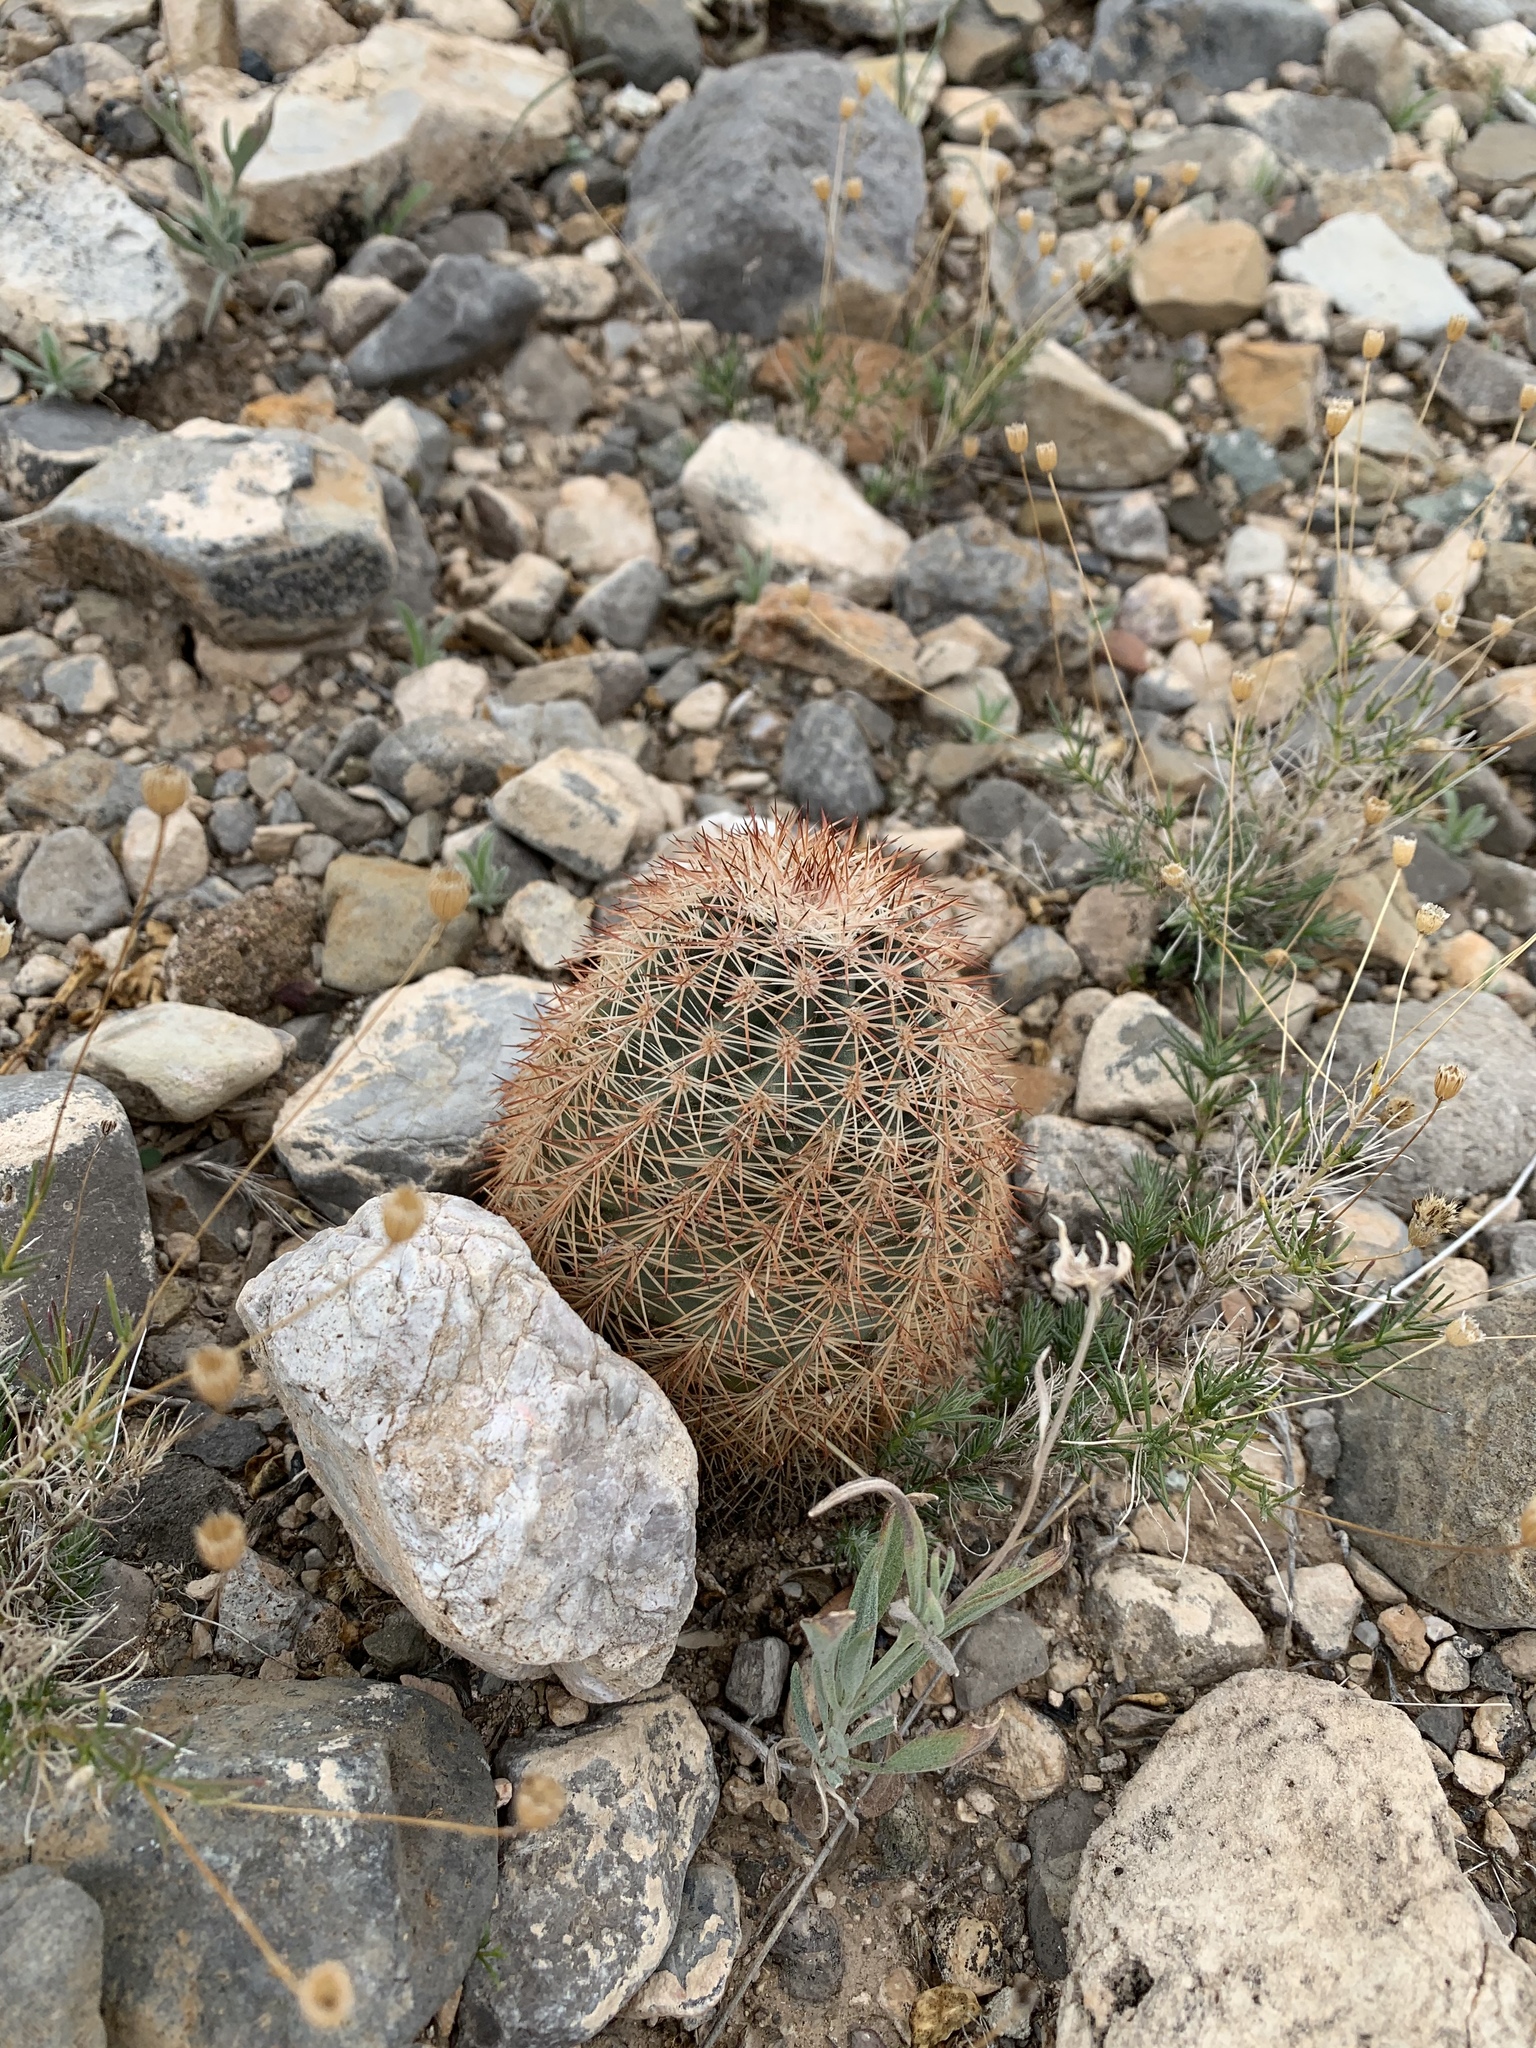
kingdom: Plantae
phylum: Tracheophyta
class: Magnoliopsida
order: Caryophyllales
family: Cactaceae
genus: Echinocereus
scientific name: Echinocereus dasyacanthus
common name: Spiny hedgehog cactus
